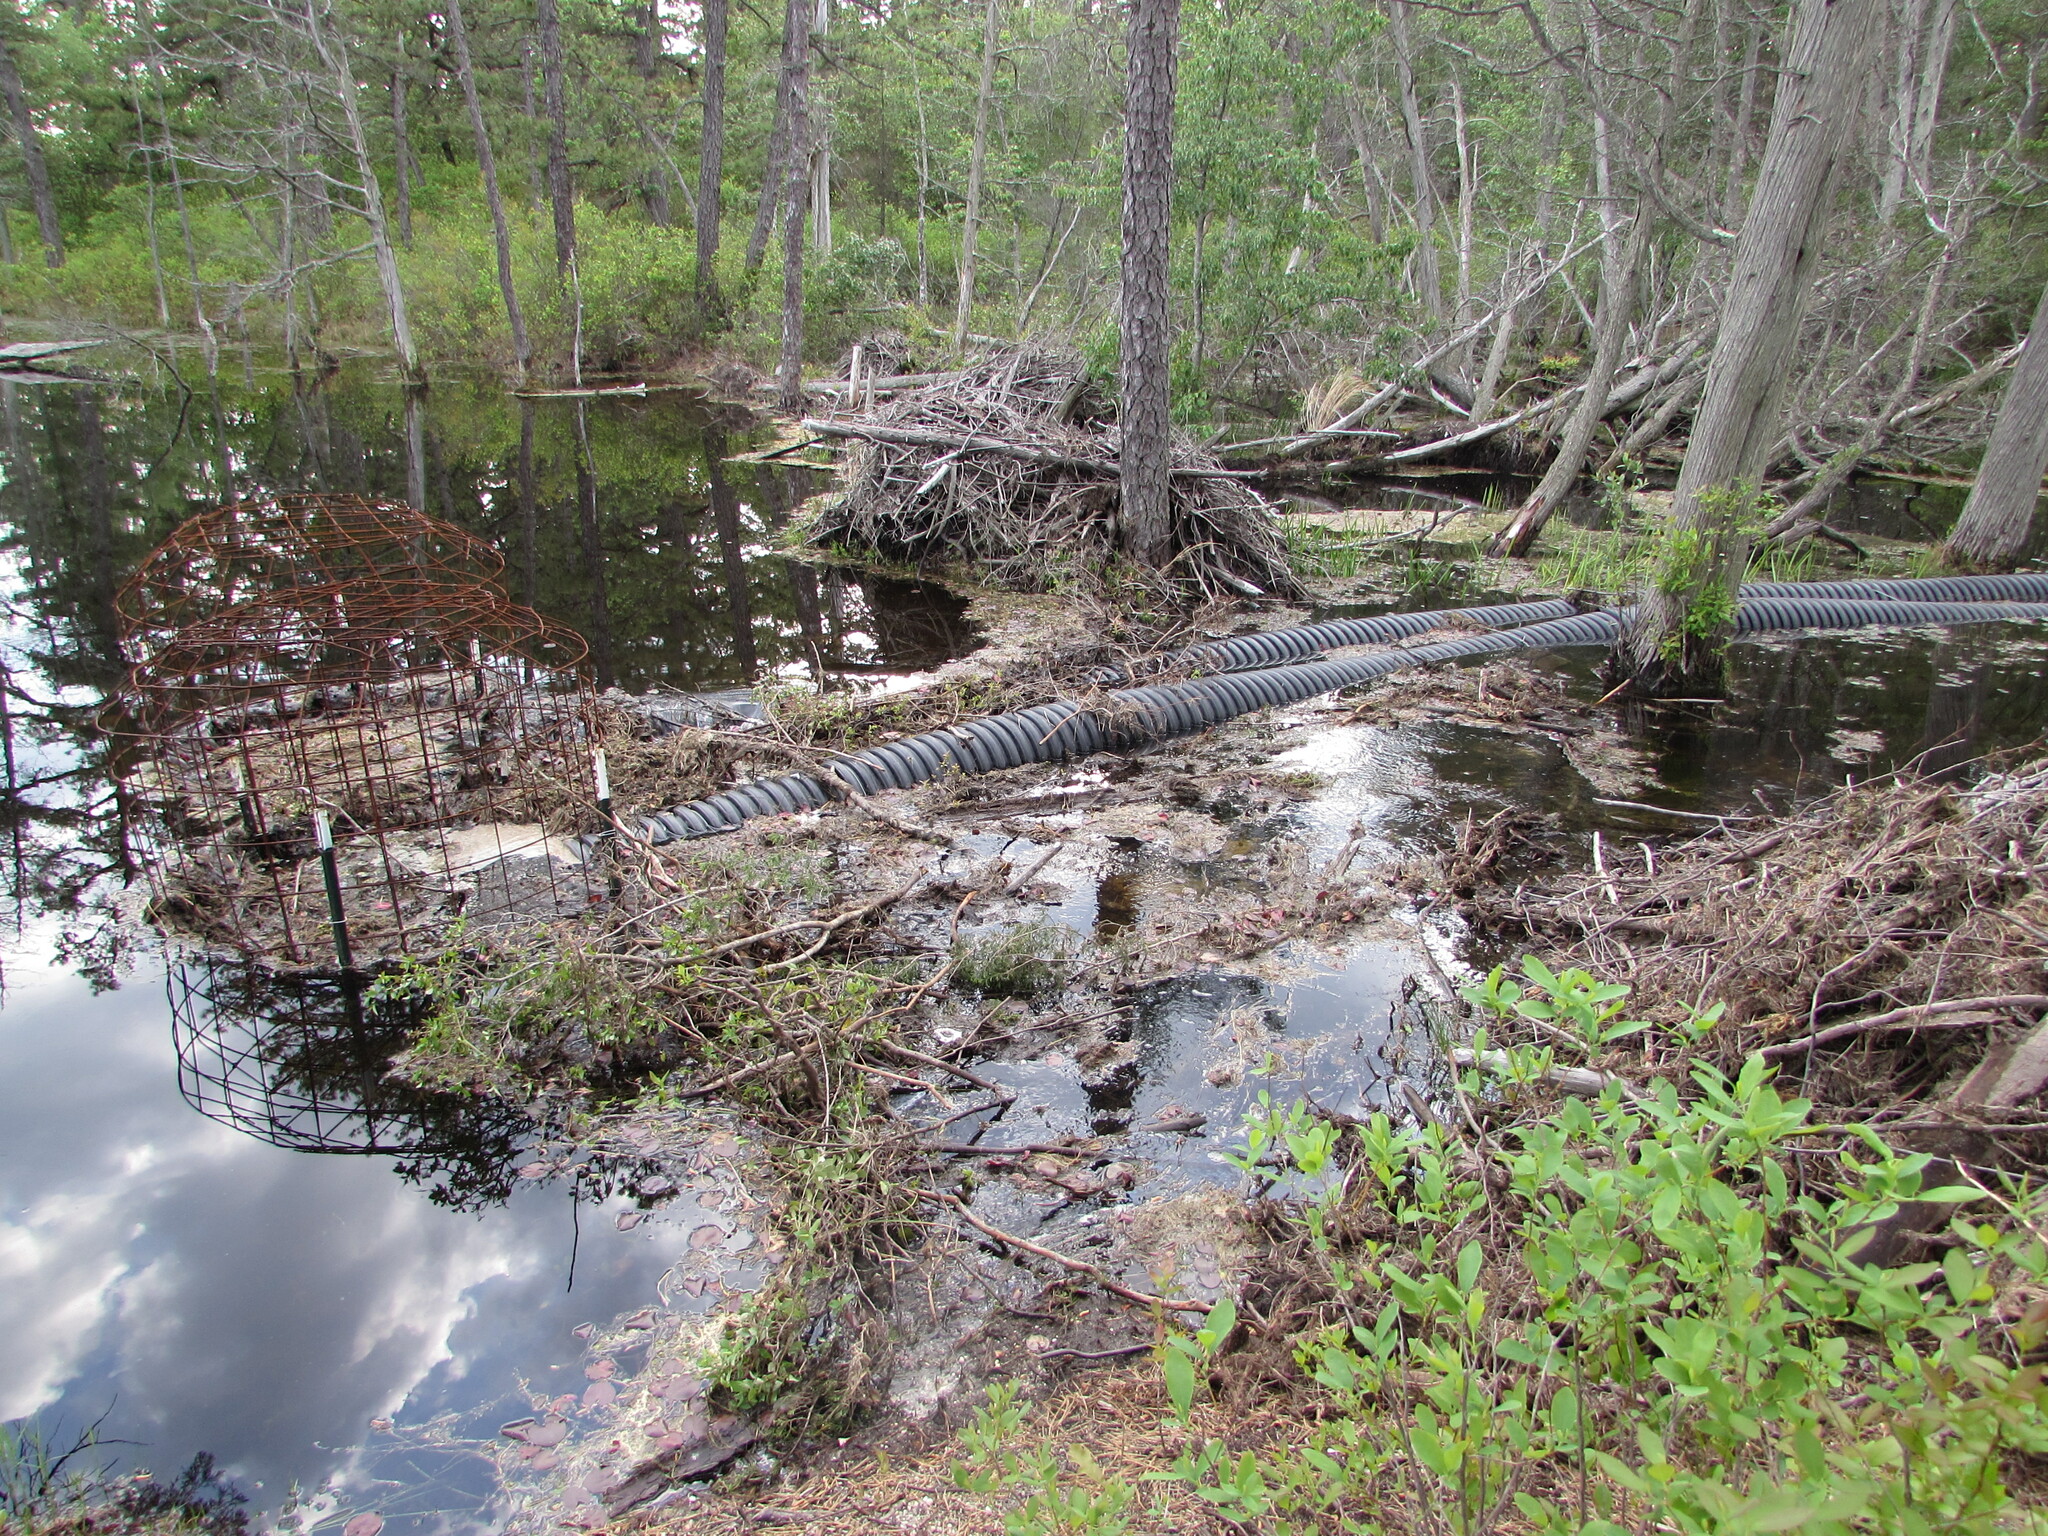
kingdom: Animalia
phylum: Chordata
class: Mammalia
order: Rodentia
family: Castoridae
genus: Castor
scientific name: Castor canadensis
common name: American beaver
